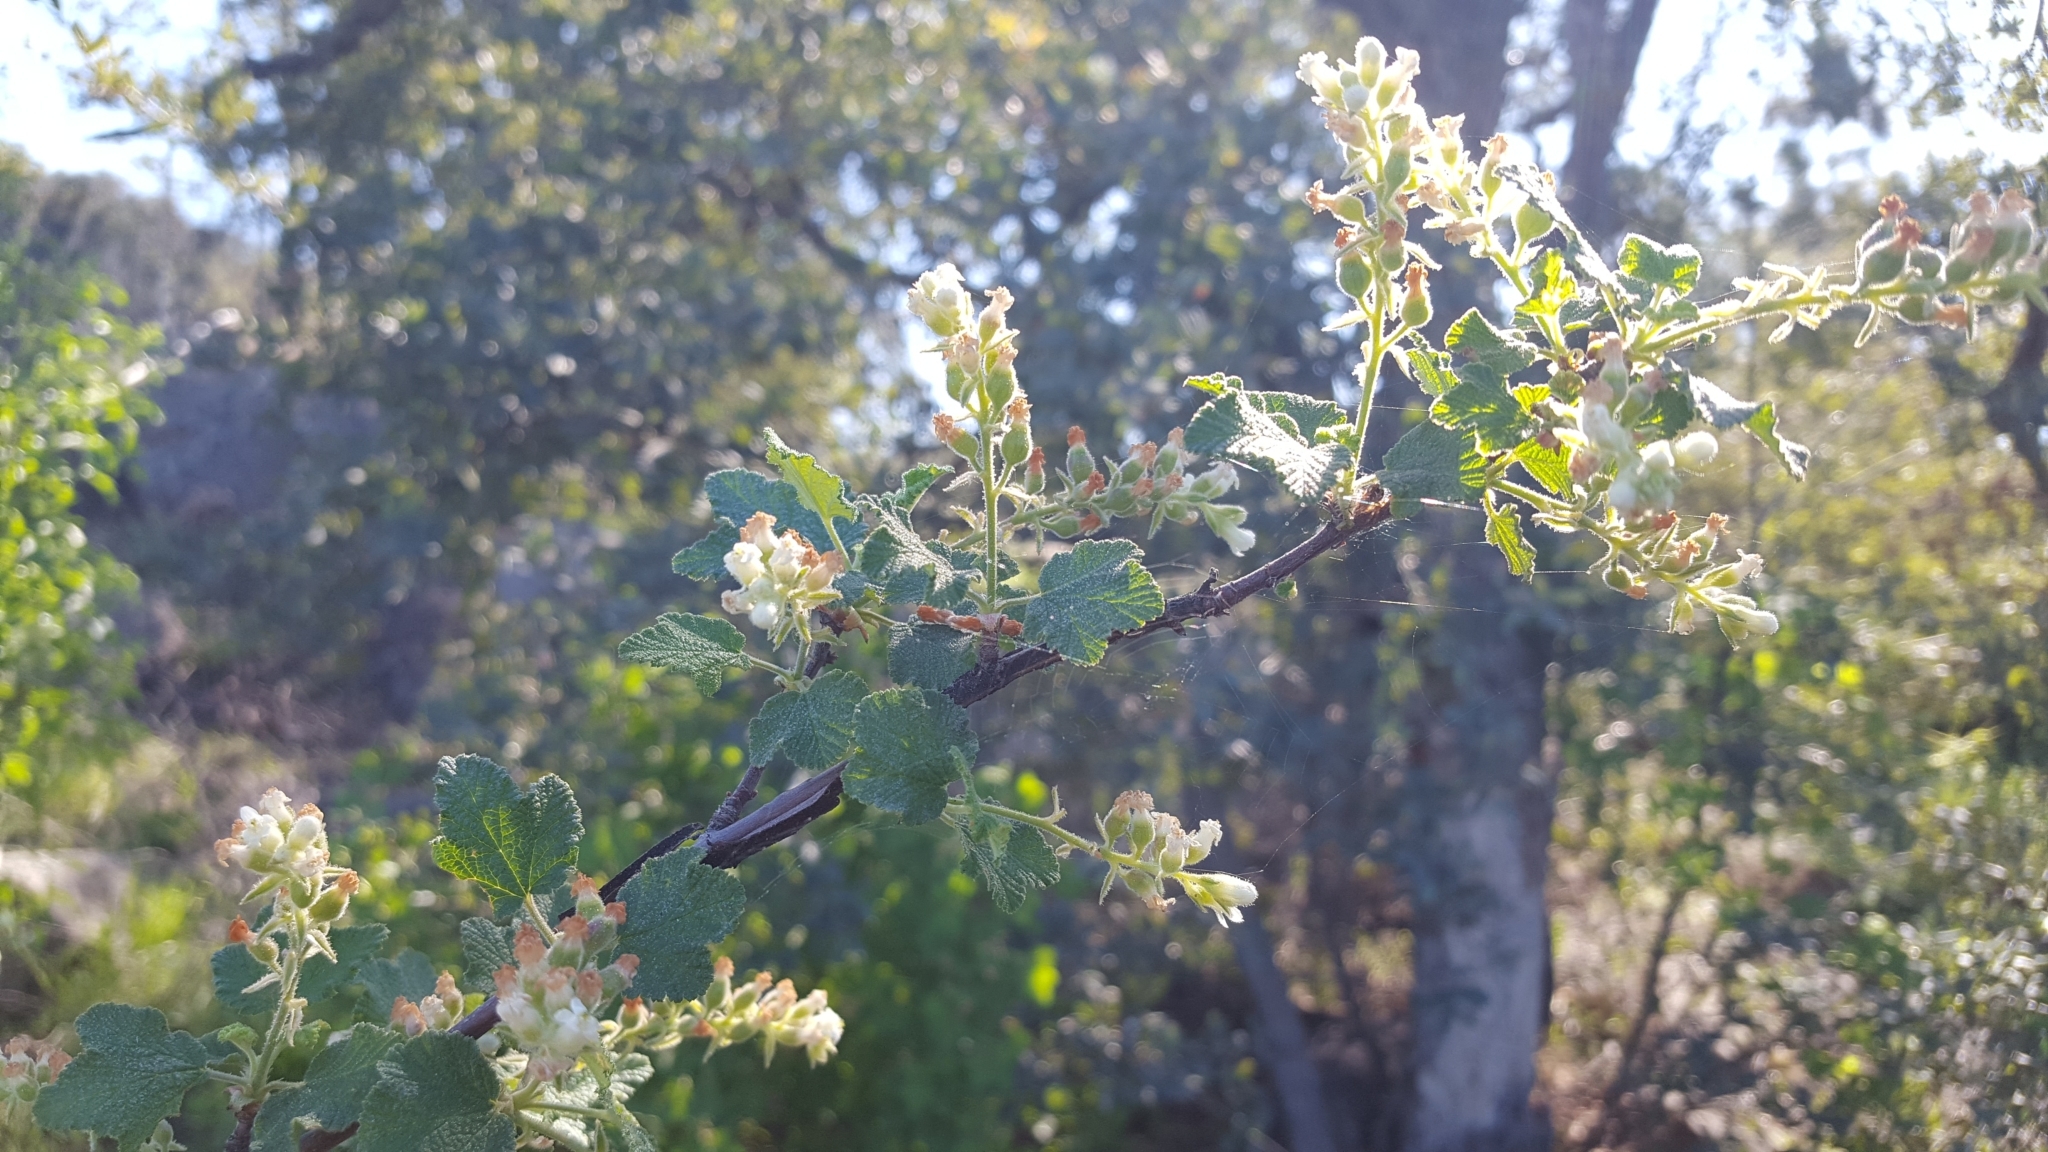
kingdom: Plantae
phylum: Tracheophyta
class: Magnoliopsida
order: Saxifragales
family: Grossulariaceae
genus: Ribes
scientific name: Ribes indecorum
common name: White-flower currant
